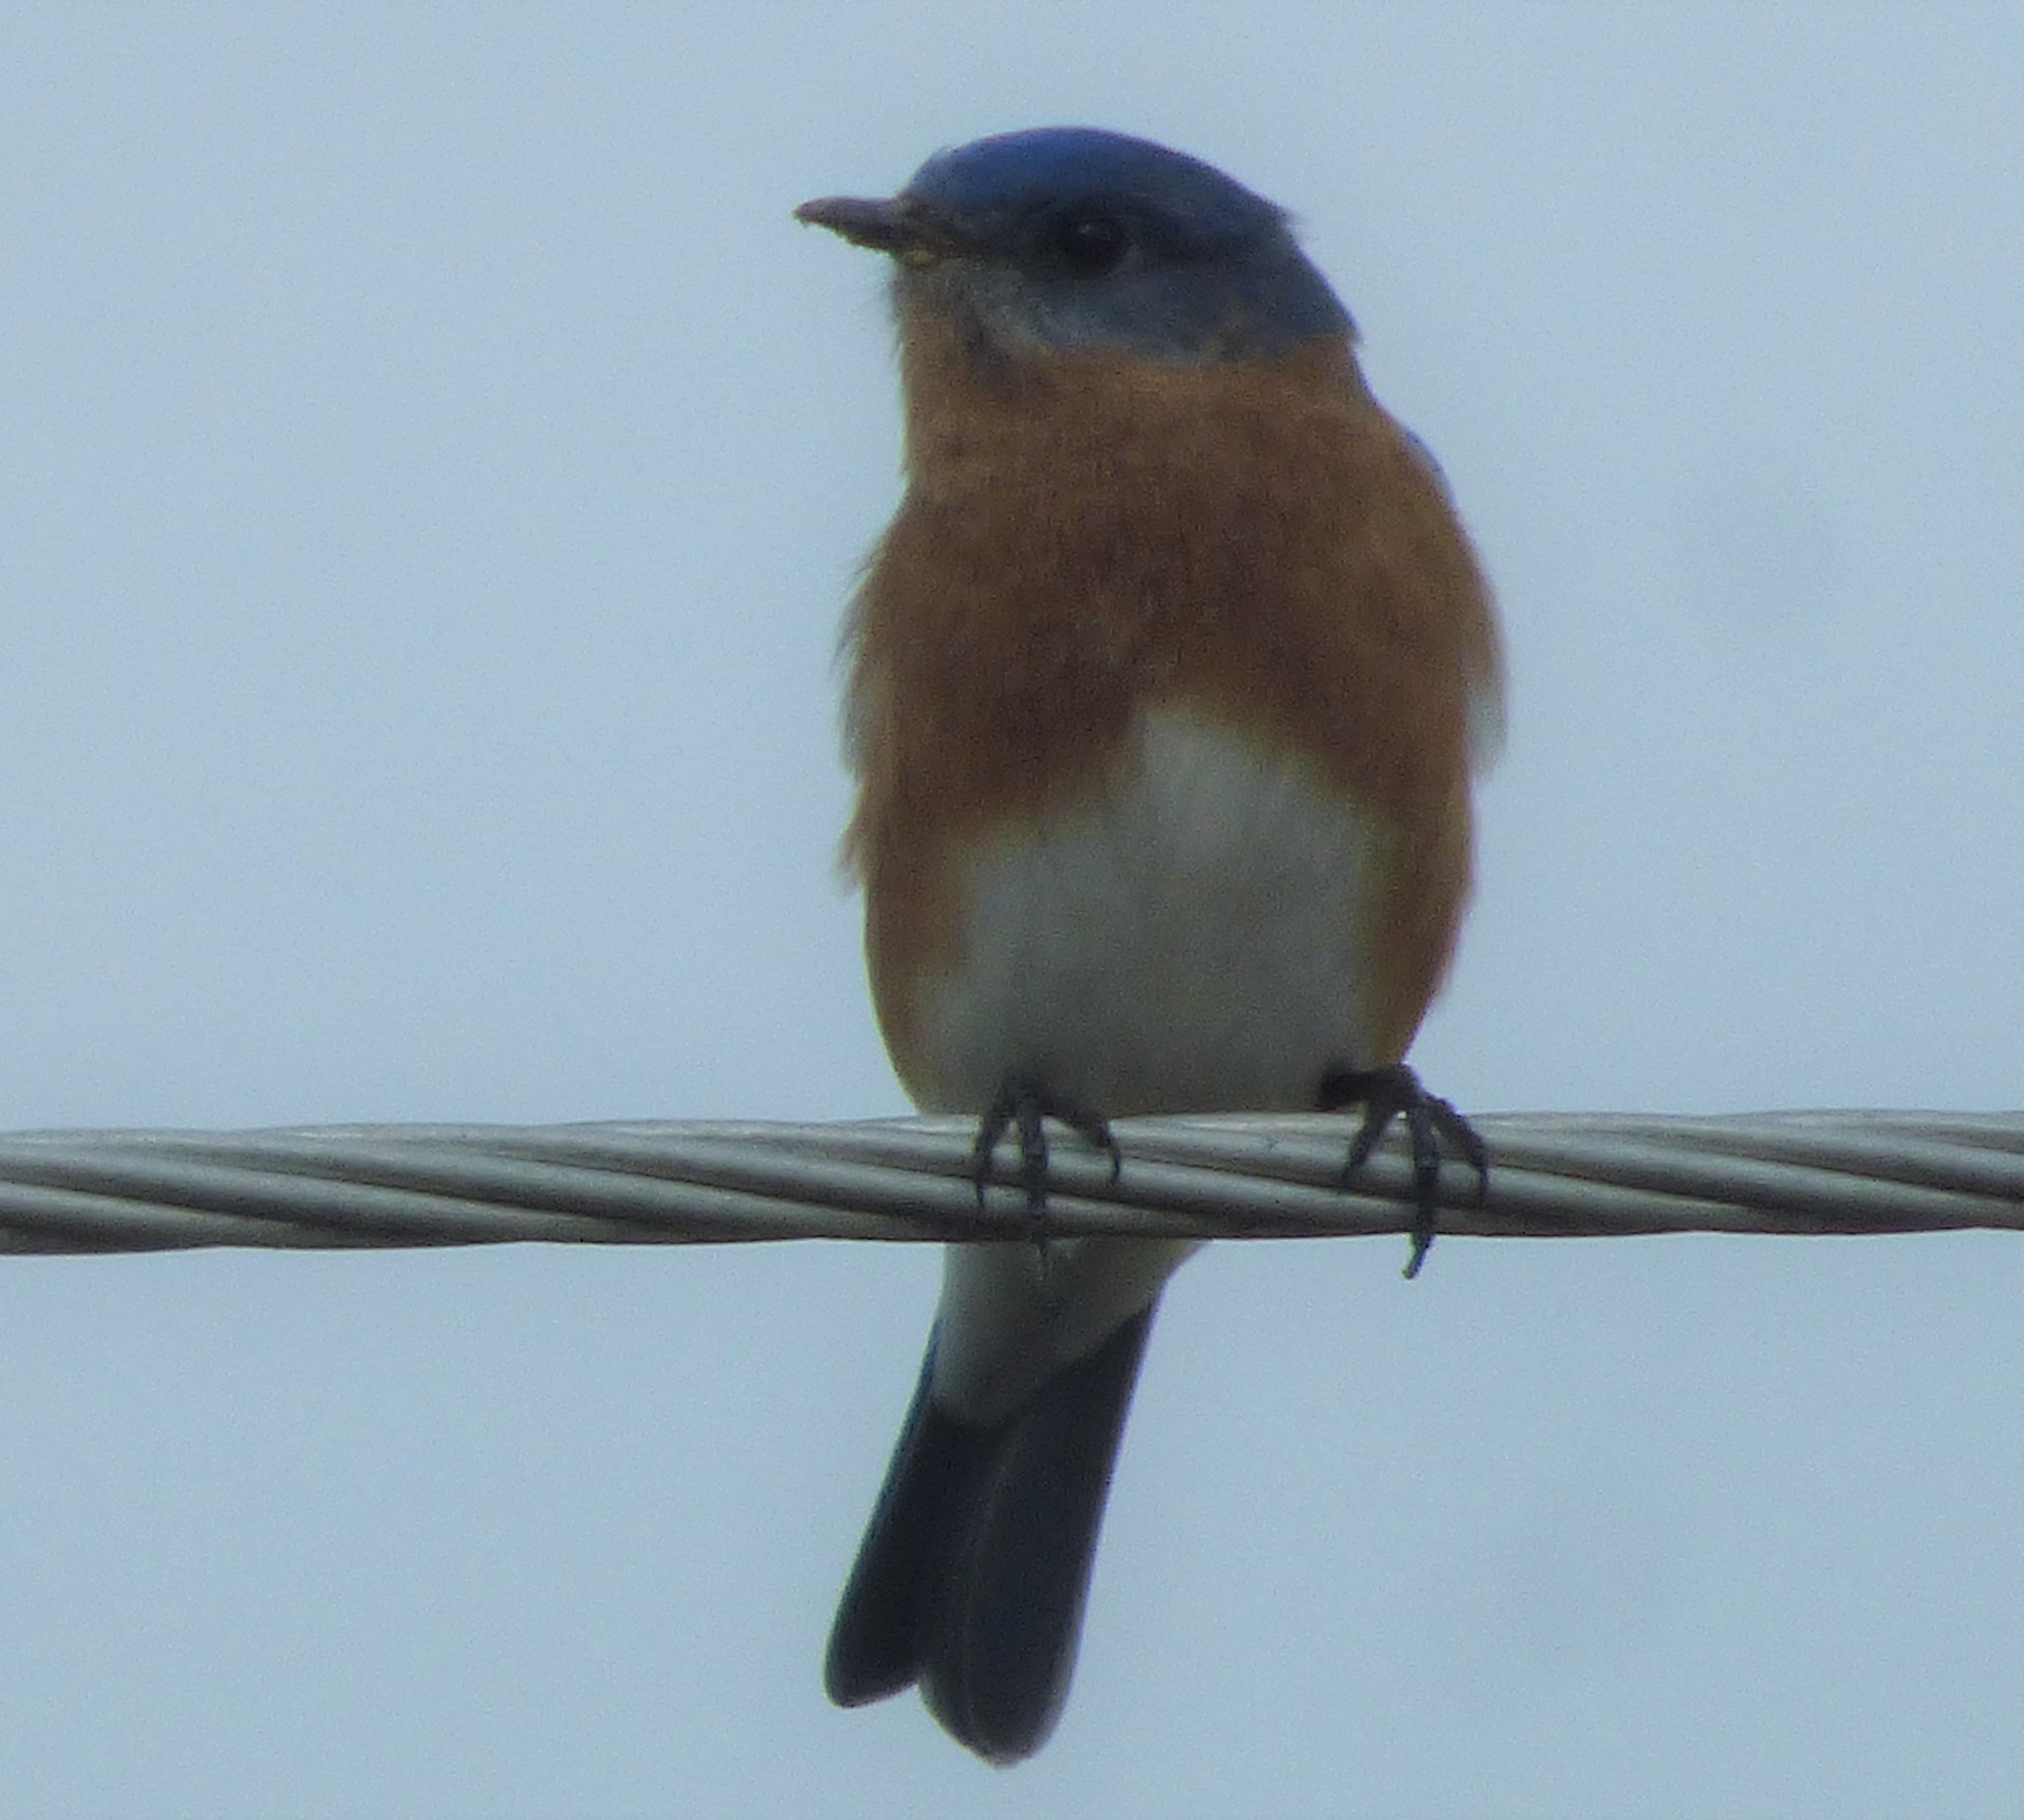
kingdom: Animalia
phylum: Chordata
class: Aves
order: Passeriformes
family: Turdidae
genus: Sialia
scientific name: Sialia sialis
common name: Eastern bluebird
